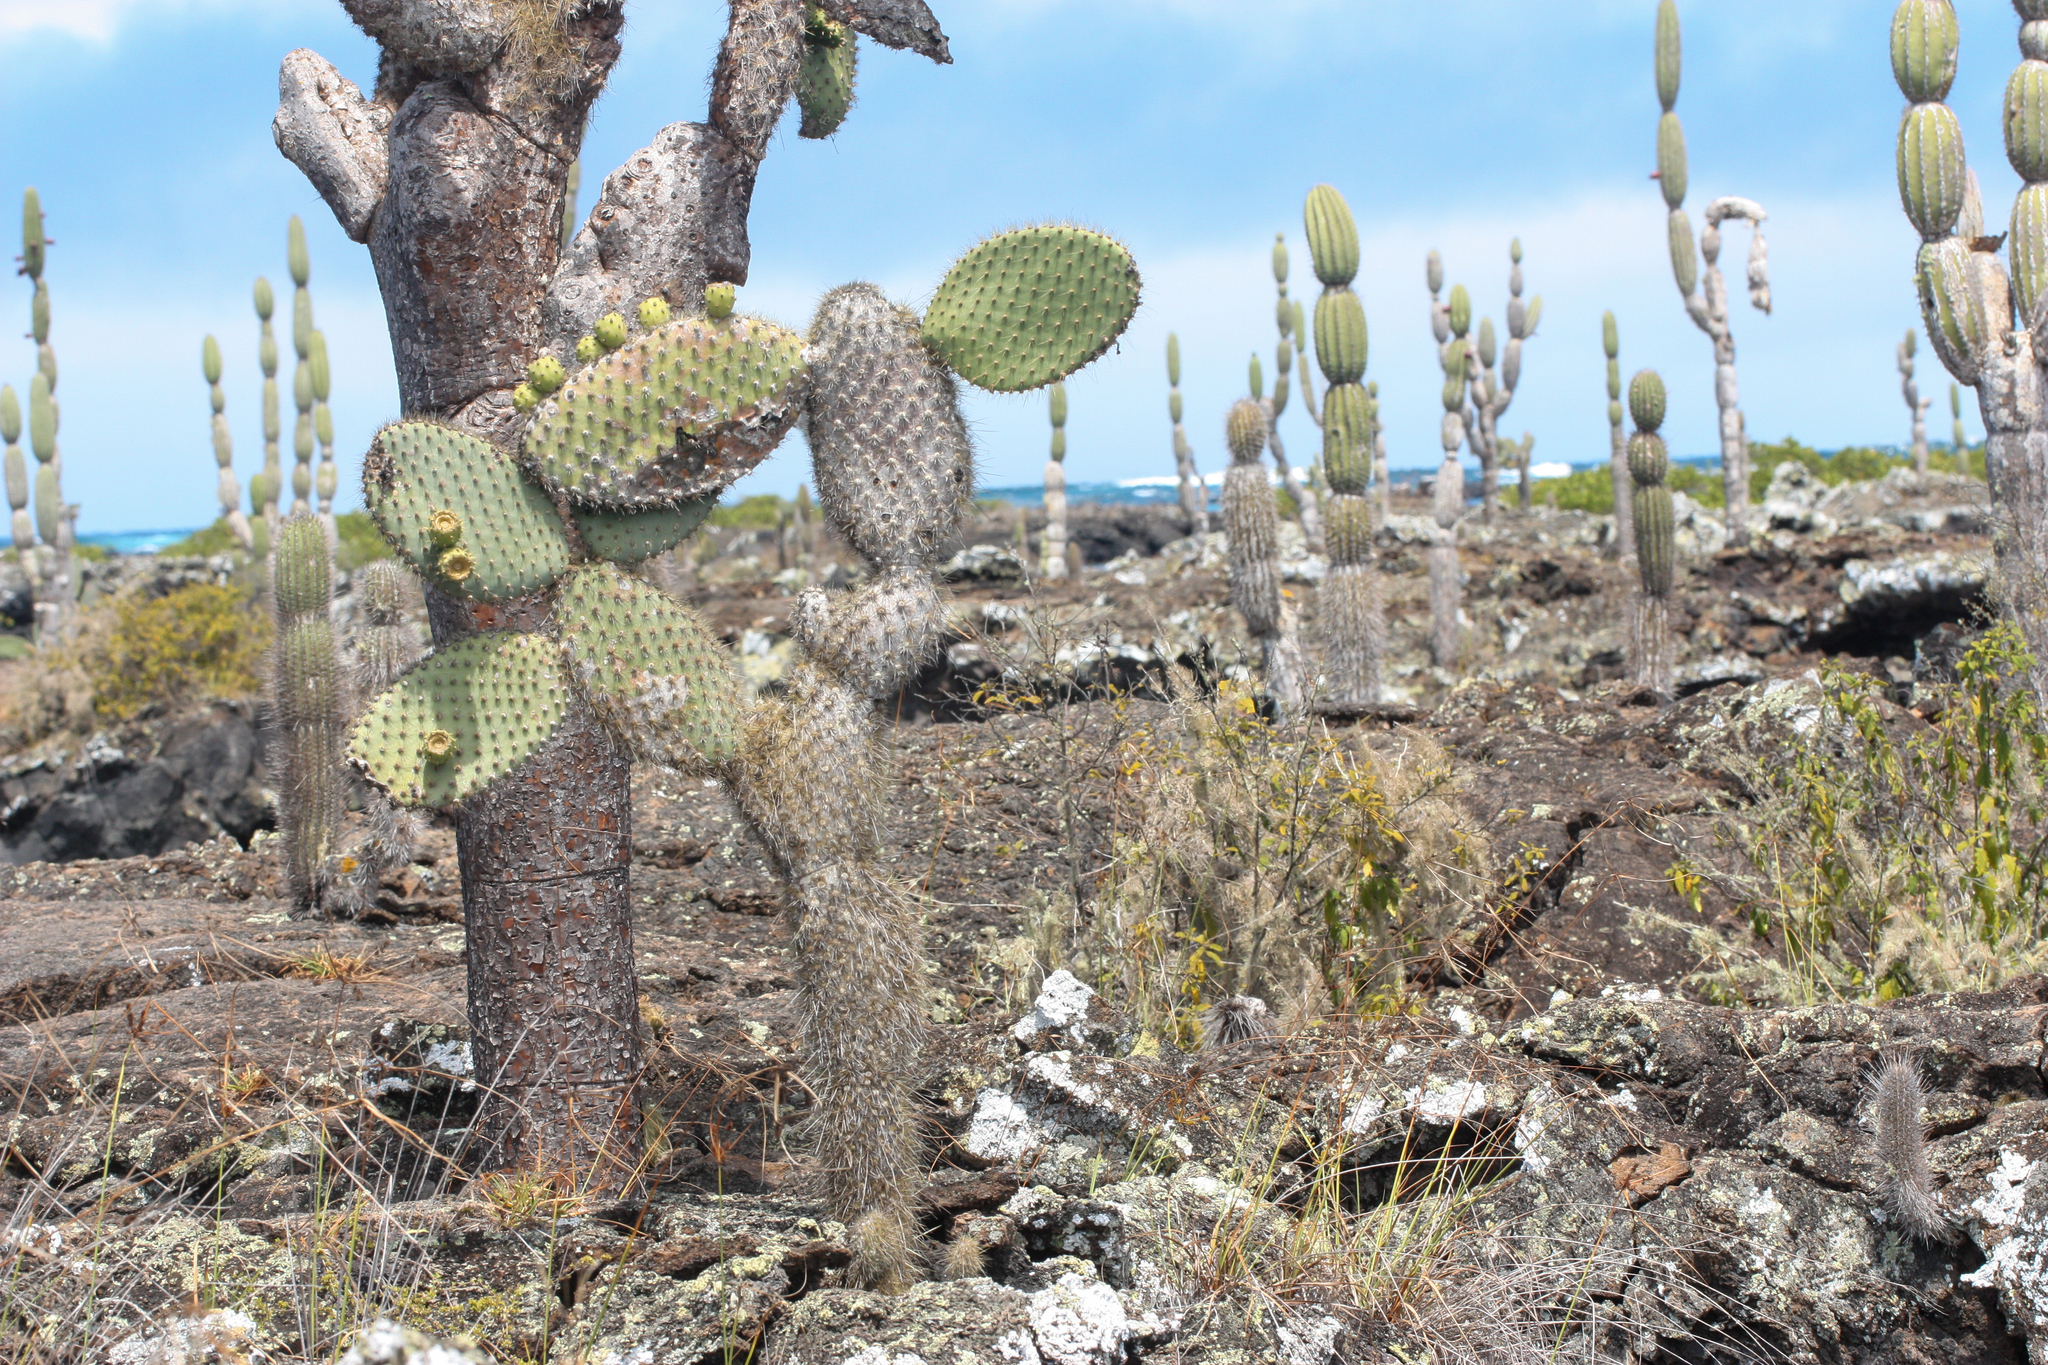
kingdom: Plantae
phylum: Tracheophyta
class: Magnoliopsida
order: Caryophyllales
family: Cactaceae
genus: Opuntia
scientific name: Opuntia galapageia
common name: Galápagos prickly pear
